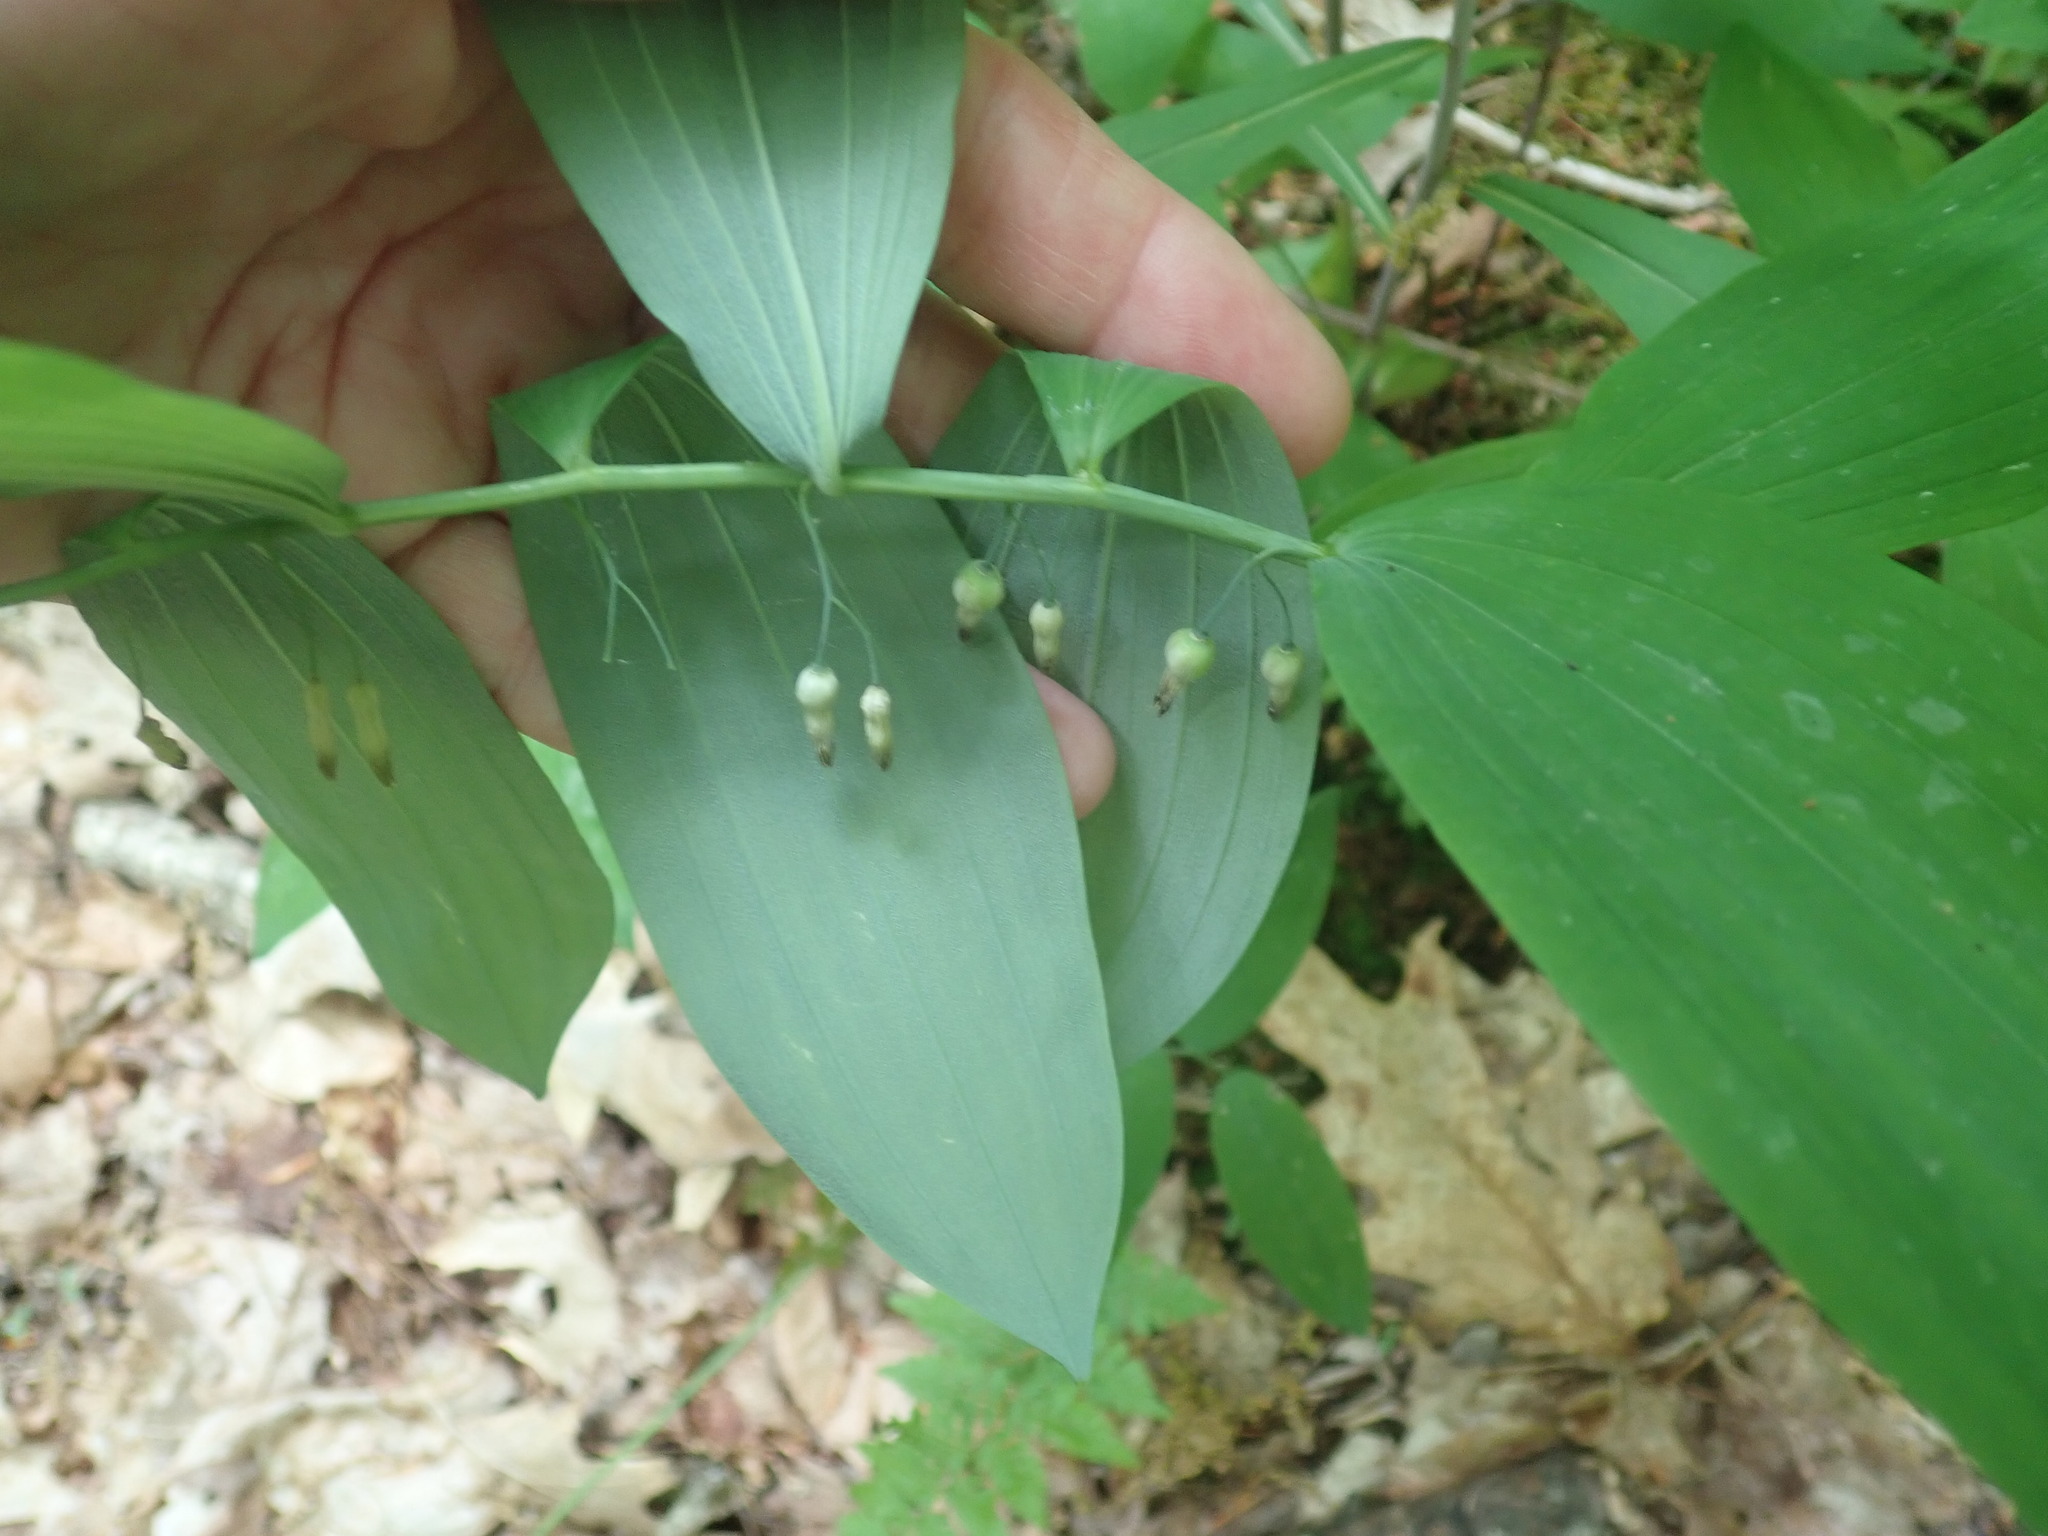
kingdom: Plantae
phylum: Tracheophyta
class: Liliopsida
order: Asparagales
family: Asparagaceae
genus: Polygonatum
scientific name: Polygonatum pubescens
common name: Downy solomon's seal
